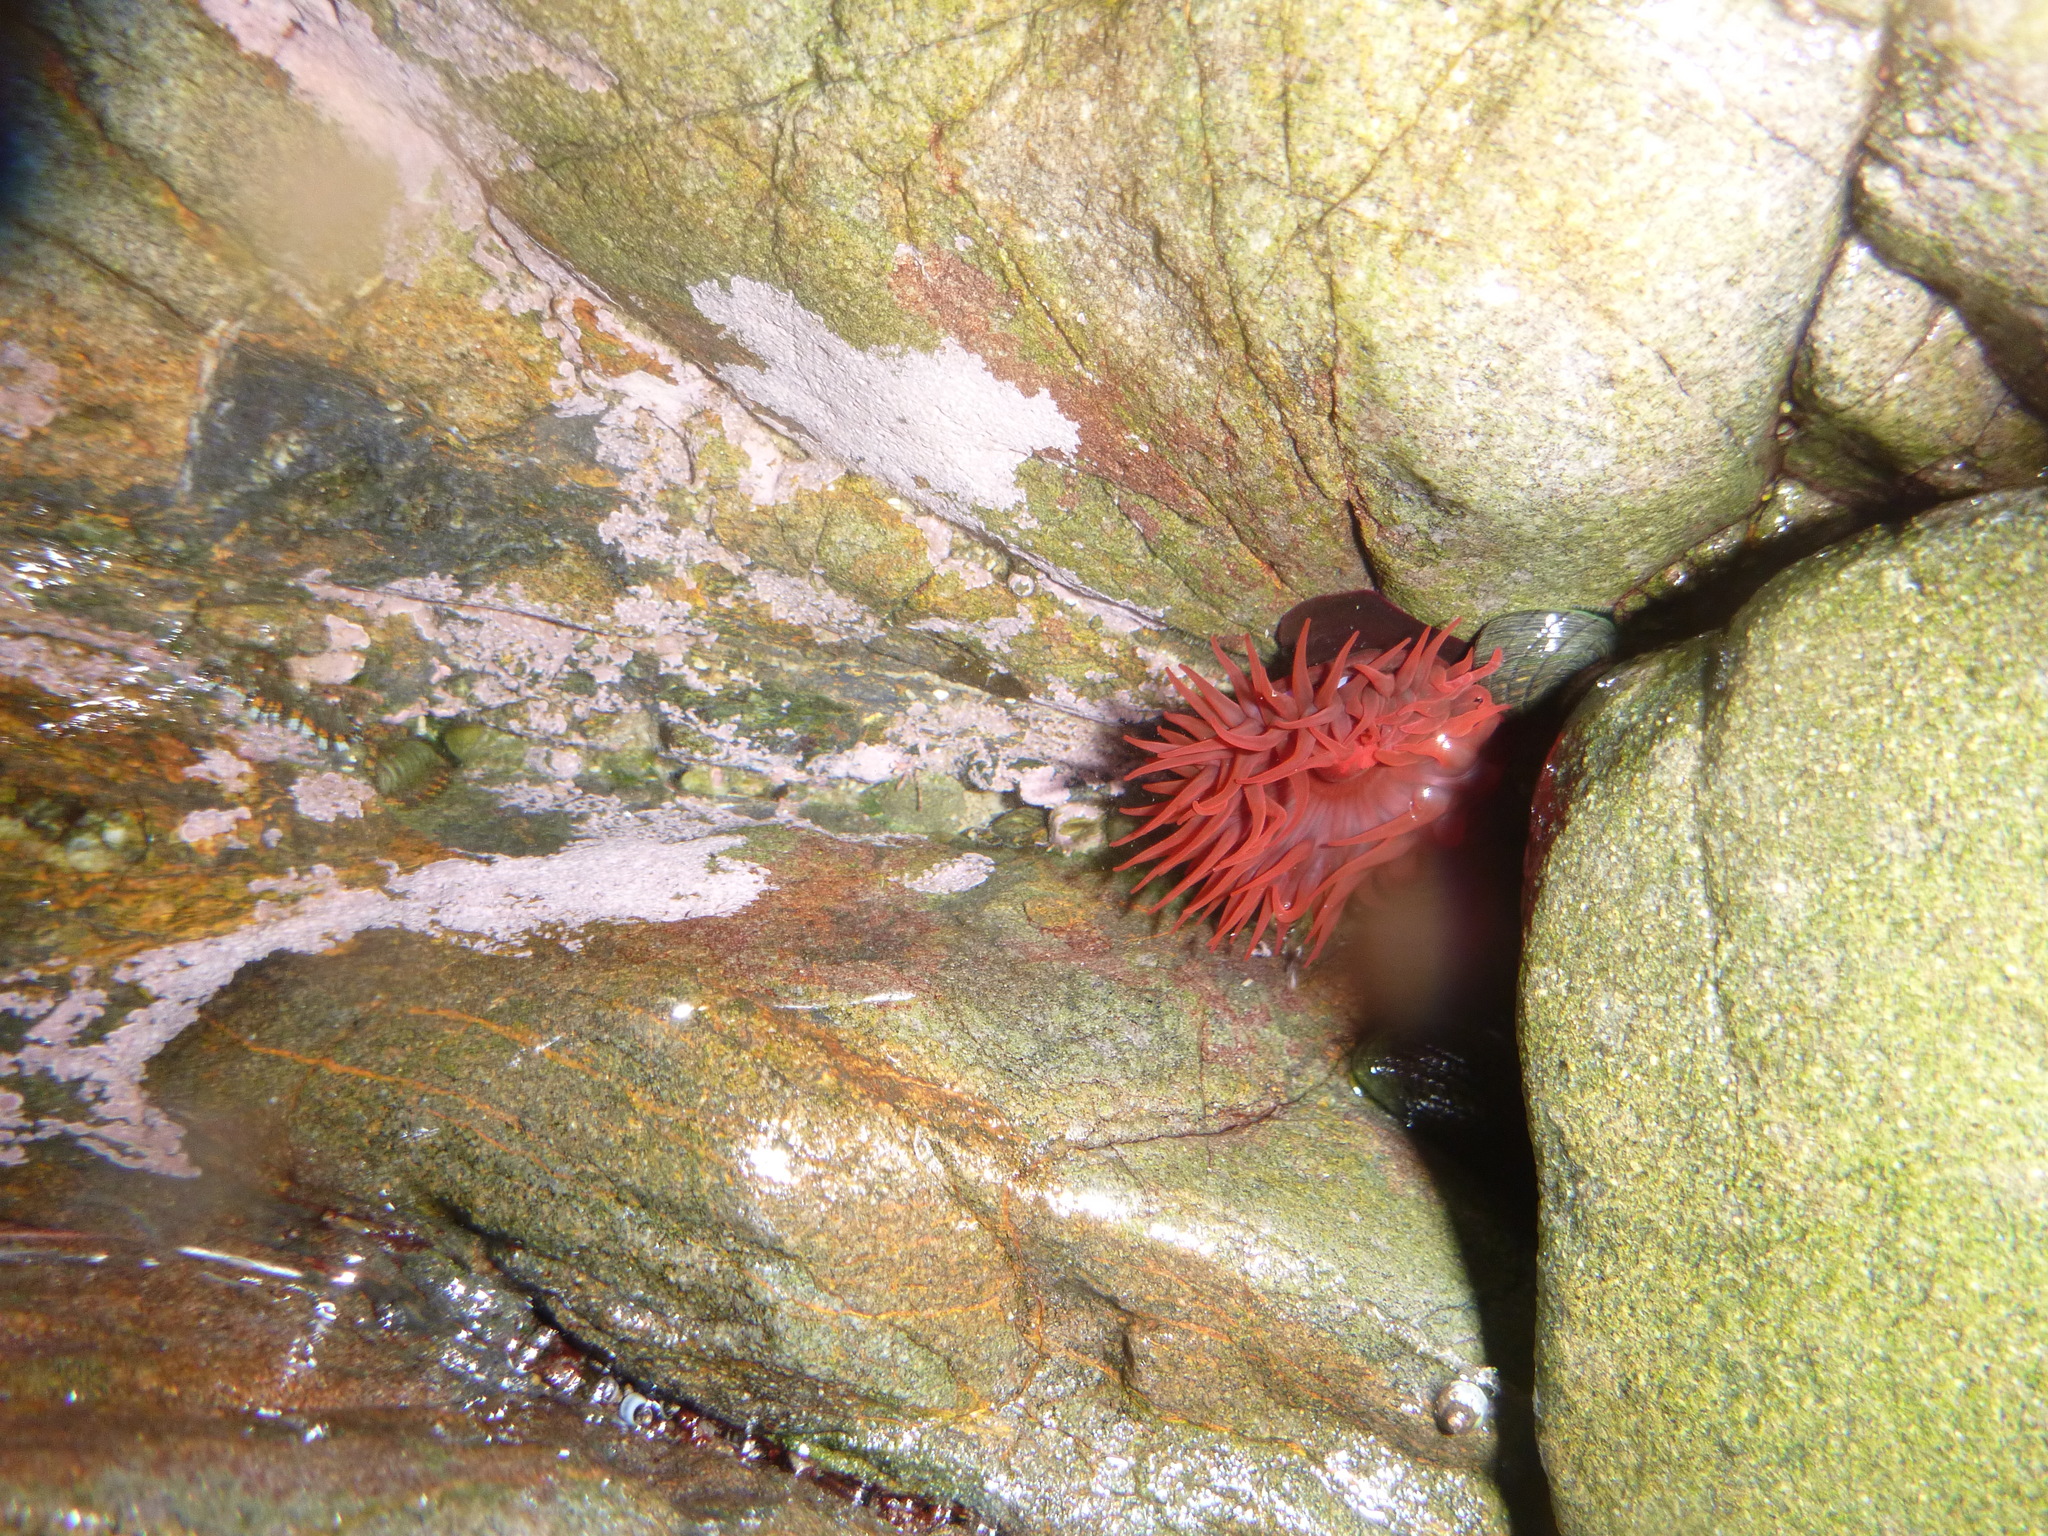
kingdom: Animalia
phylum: Cnidaria
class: Anthozoa
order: Actiniaria
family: Actiniidae
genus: Actinia
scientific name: Actinia tenebrosa
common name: Waratah anemone
